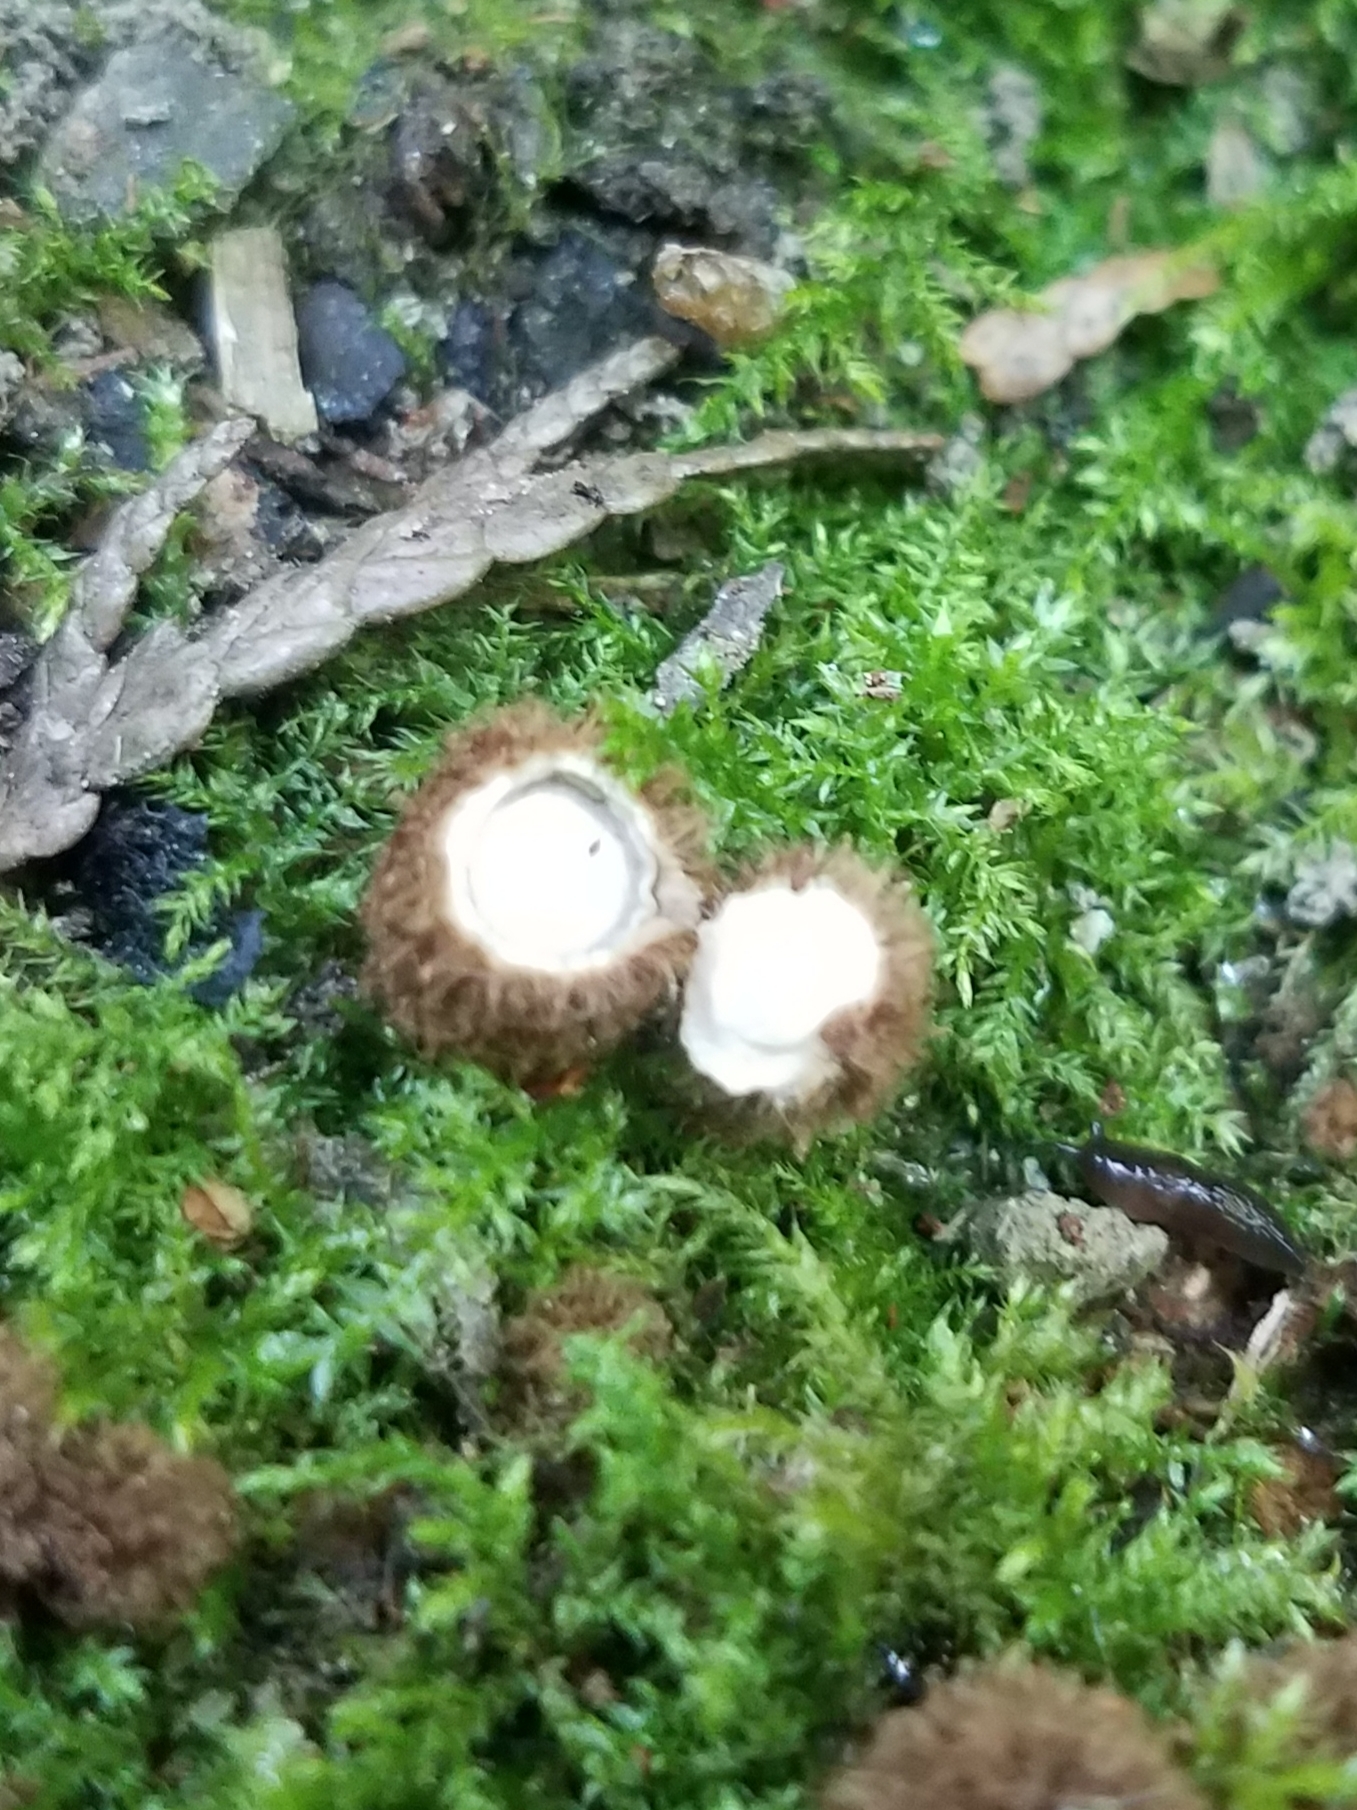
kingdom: Fungi
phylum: Basidiomycota
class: Agaricomycetes
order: Agaricales
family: Agaricaceae
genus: Cyathus
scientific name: Cyathus striatus
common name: Fluted bird's nest
